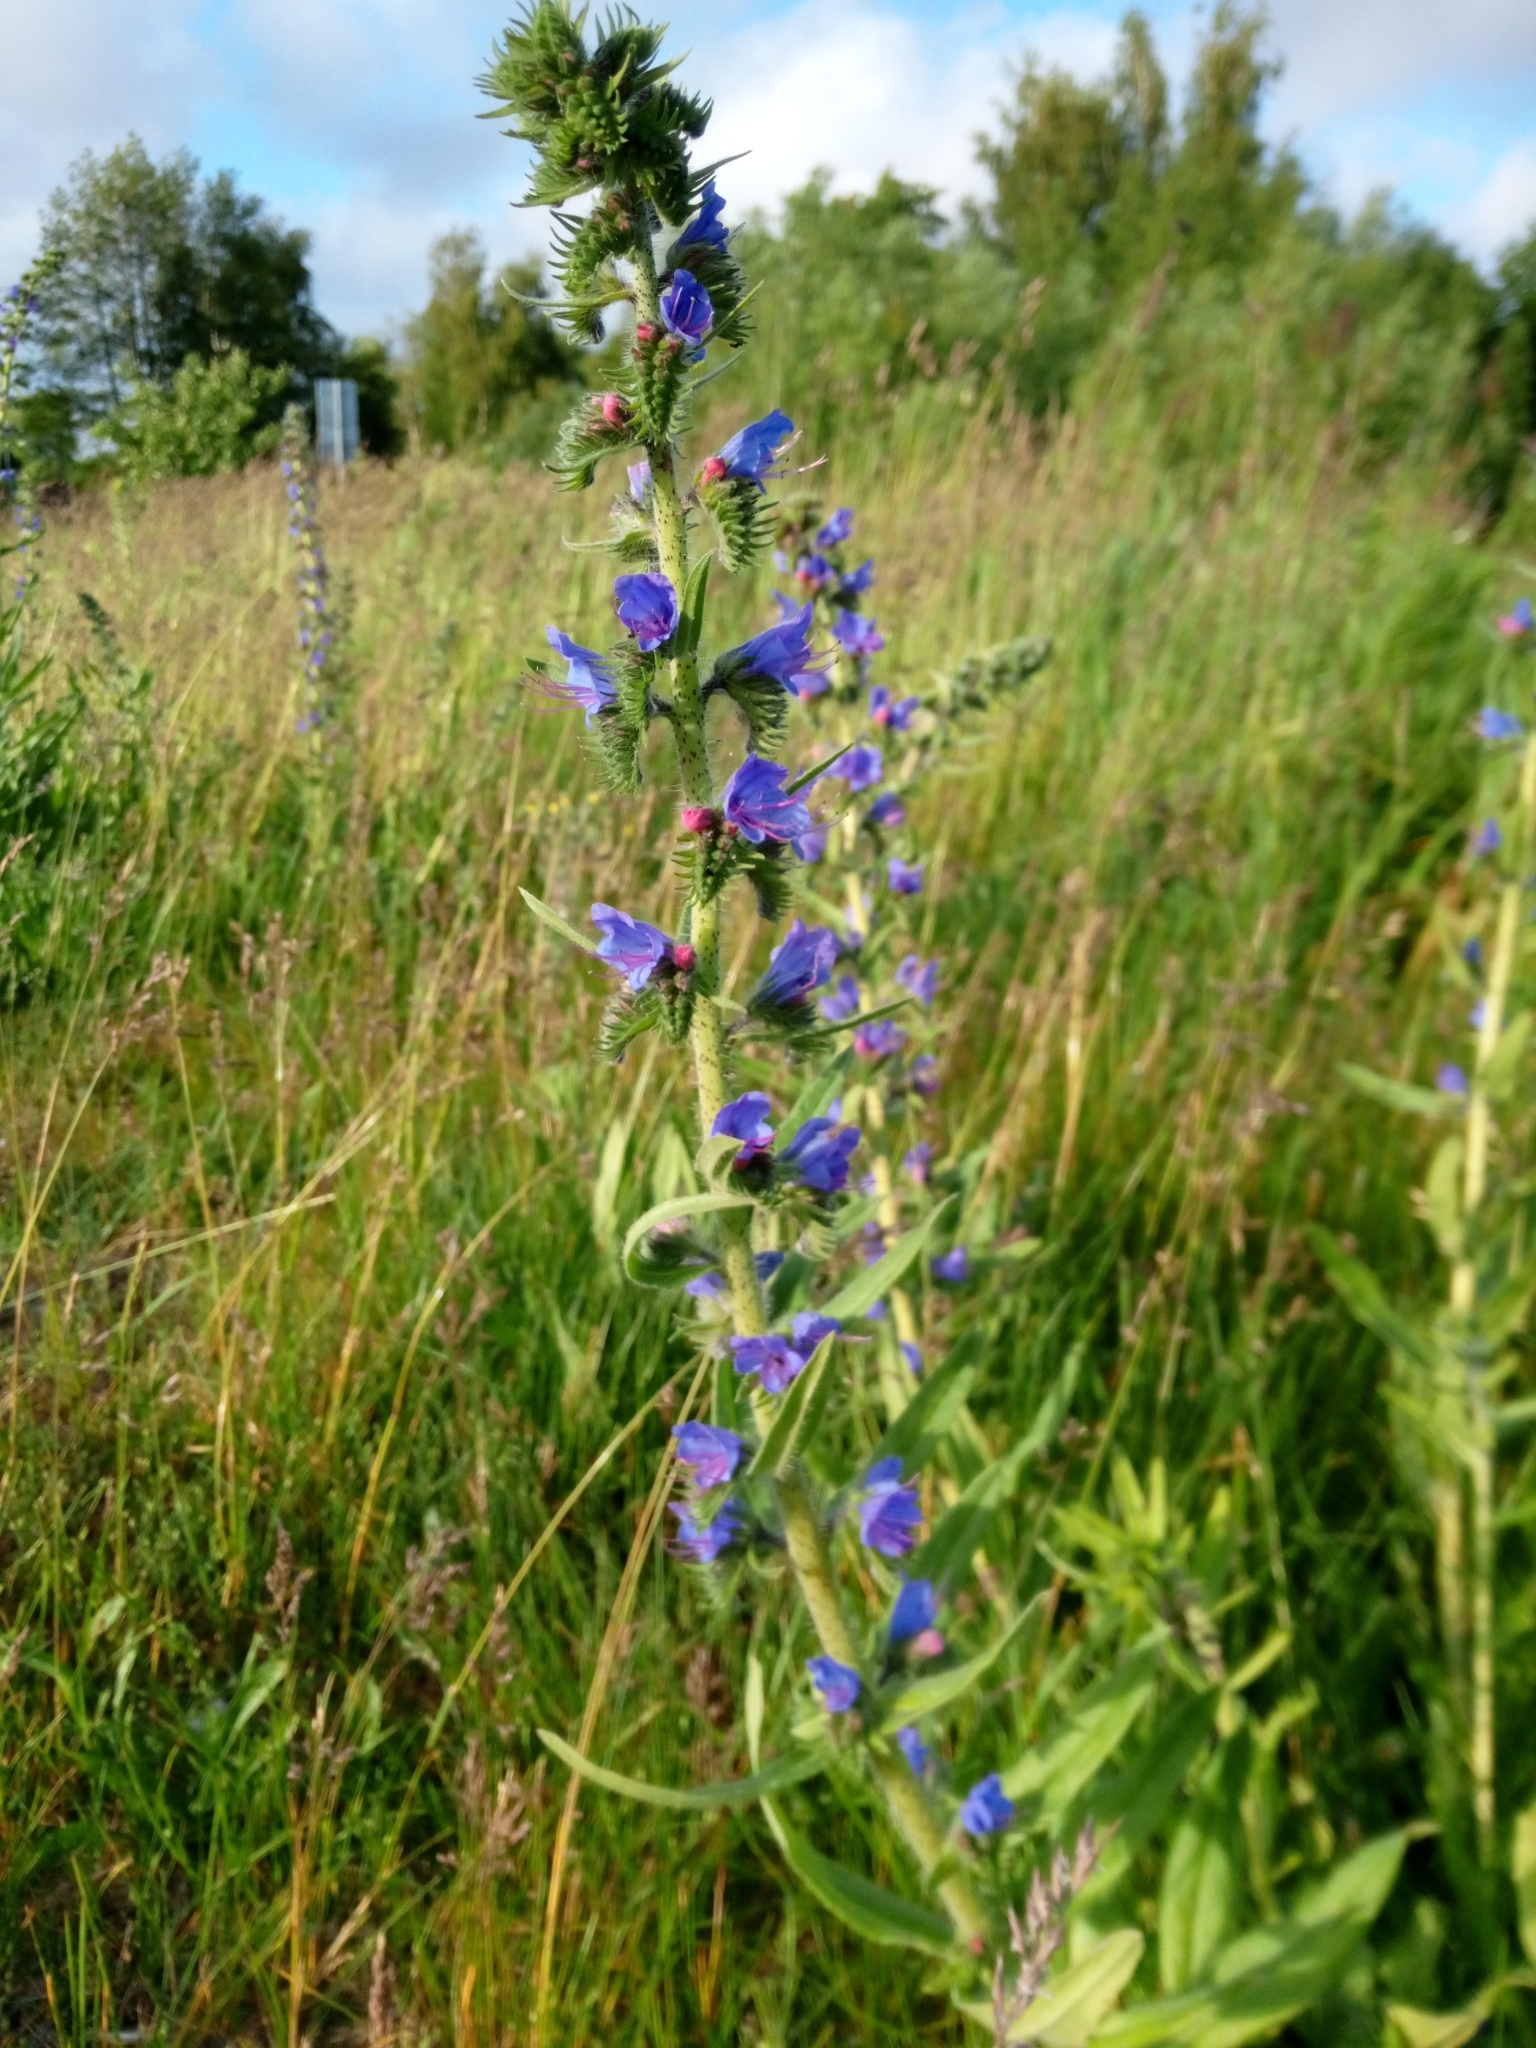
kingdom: Plantae
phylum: Tracheophyta
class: Magnoliopsida
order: Boraginales
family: Boraginaceae
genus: Echium
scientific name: Echium vulgare
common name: Common viper's bugloss
